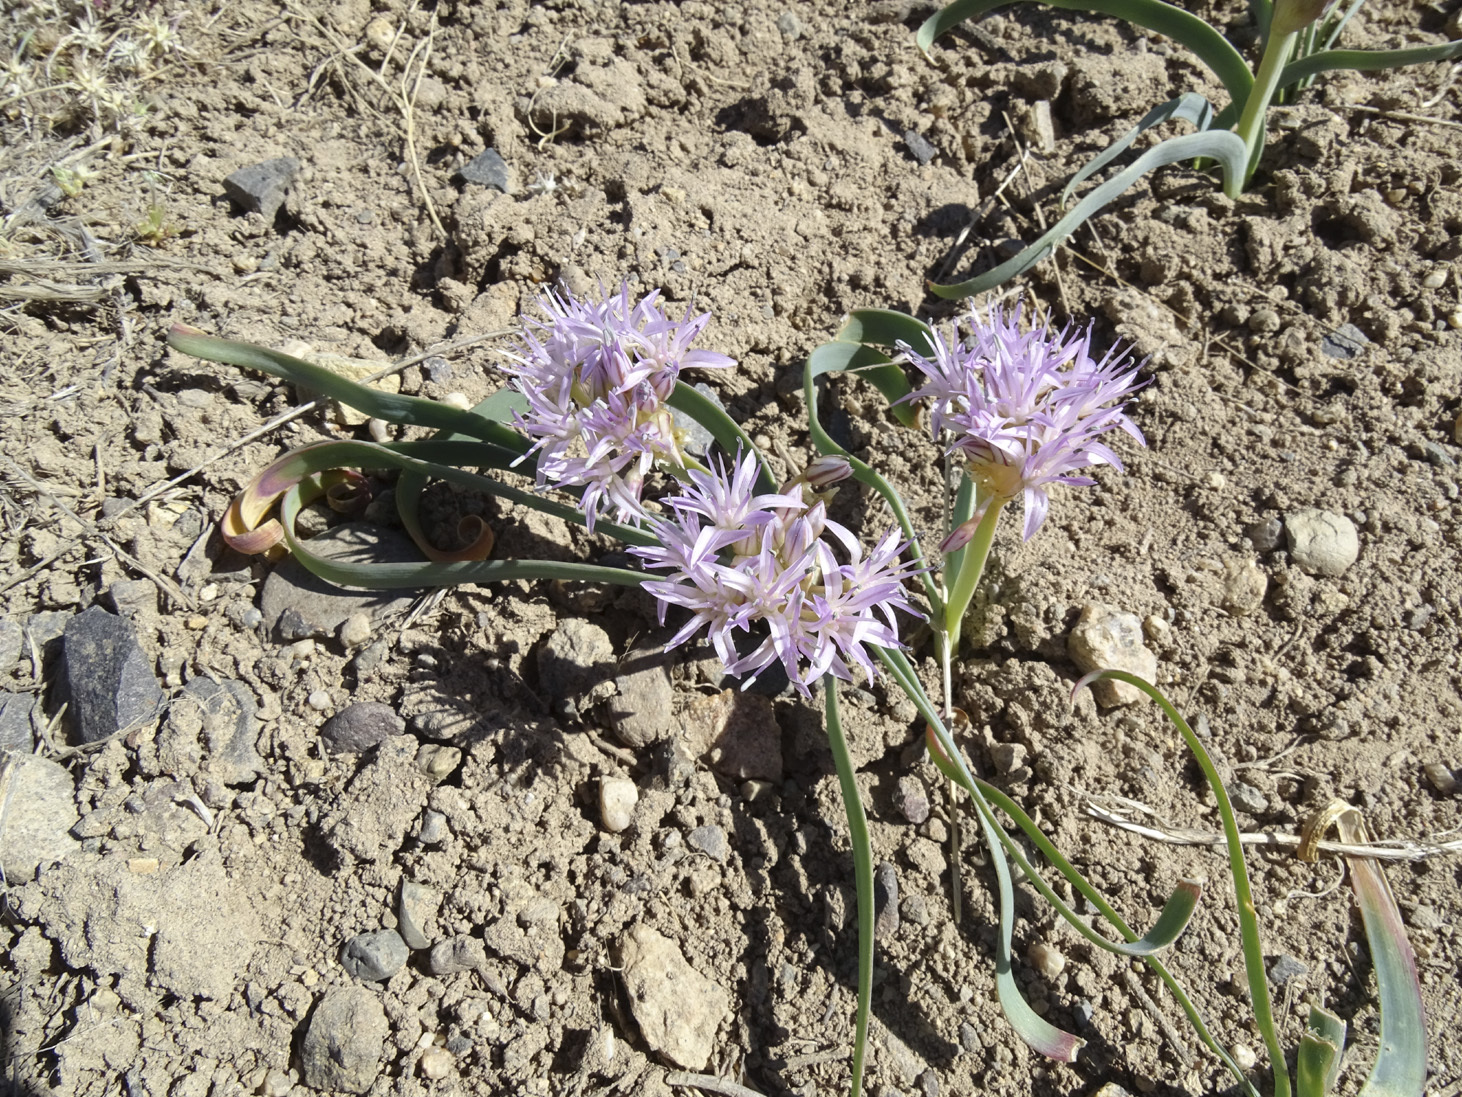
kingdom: Plantae
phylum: Tracheophyta
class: Liliopsida
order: Asparagales
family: Amaryllidaceae
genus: Allium
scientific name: Allium anceps
